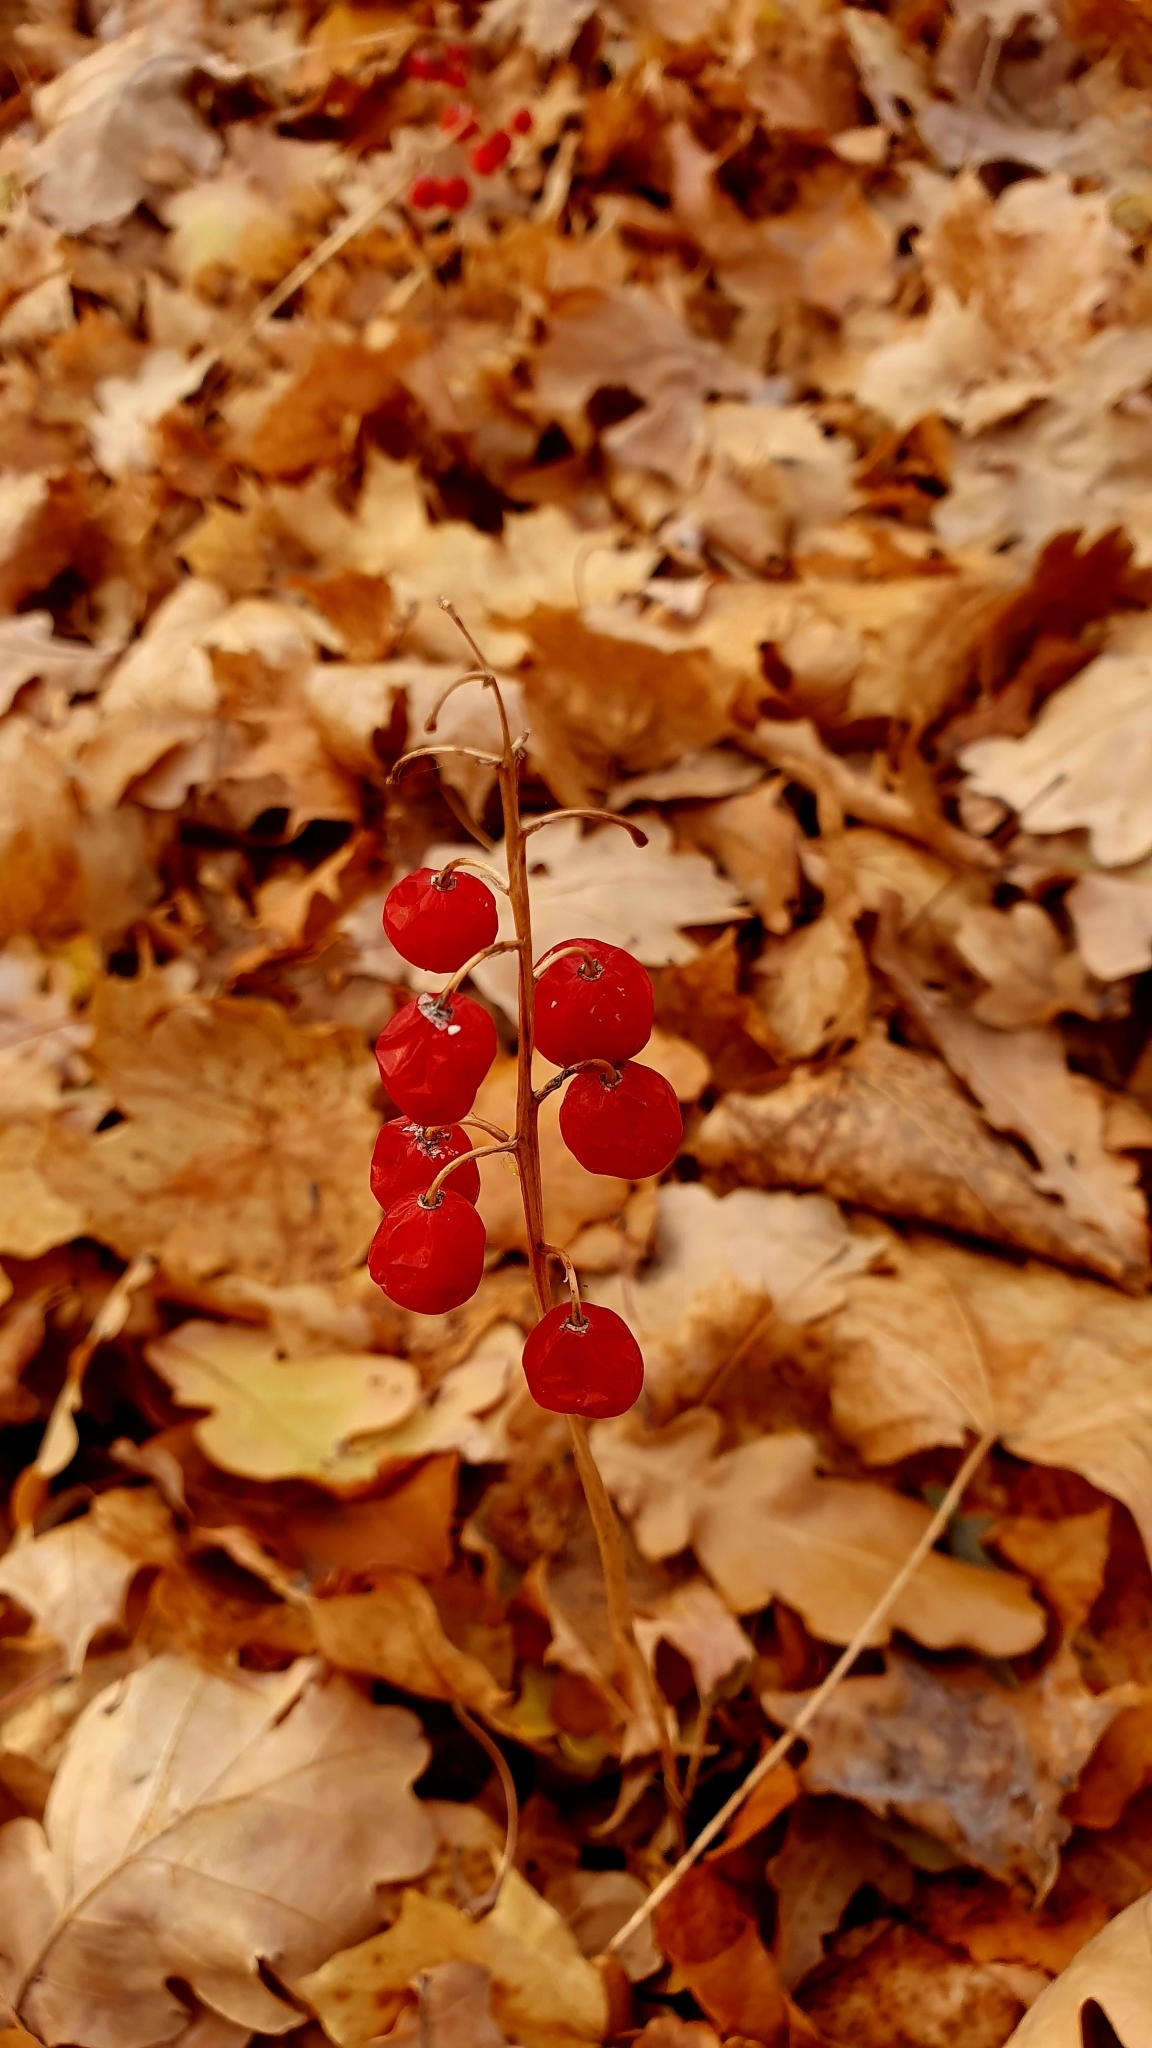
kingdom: Plantae
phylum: Tracheophyta
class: Liliopsida
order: Asparagales
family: Asparagaceae
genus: Convallaria
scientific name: Convallaria majalis
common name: Lily-of-the-valley
